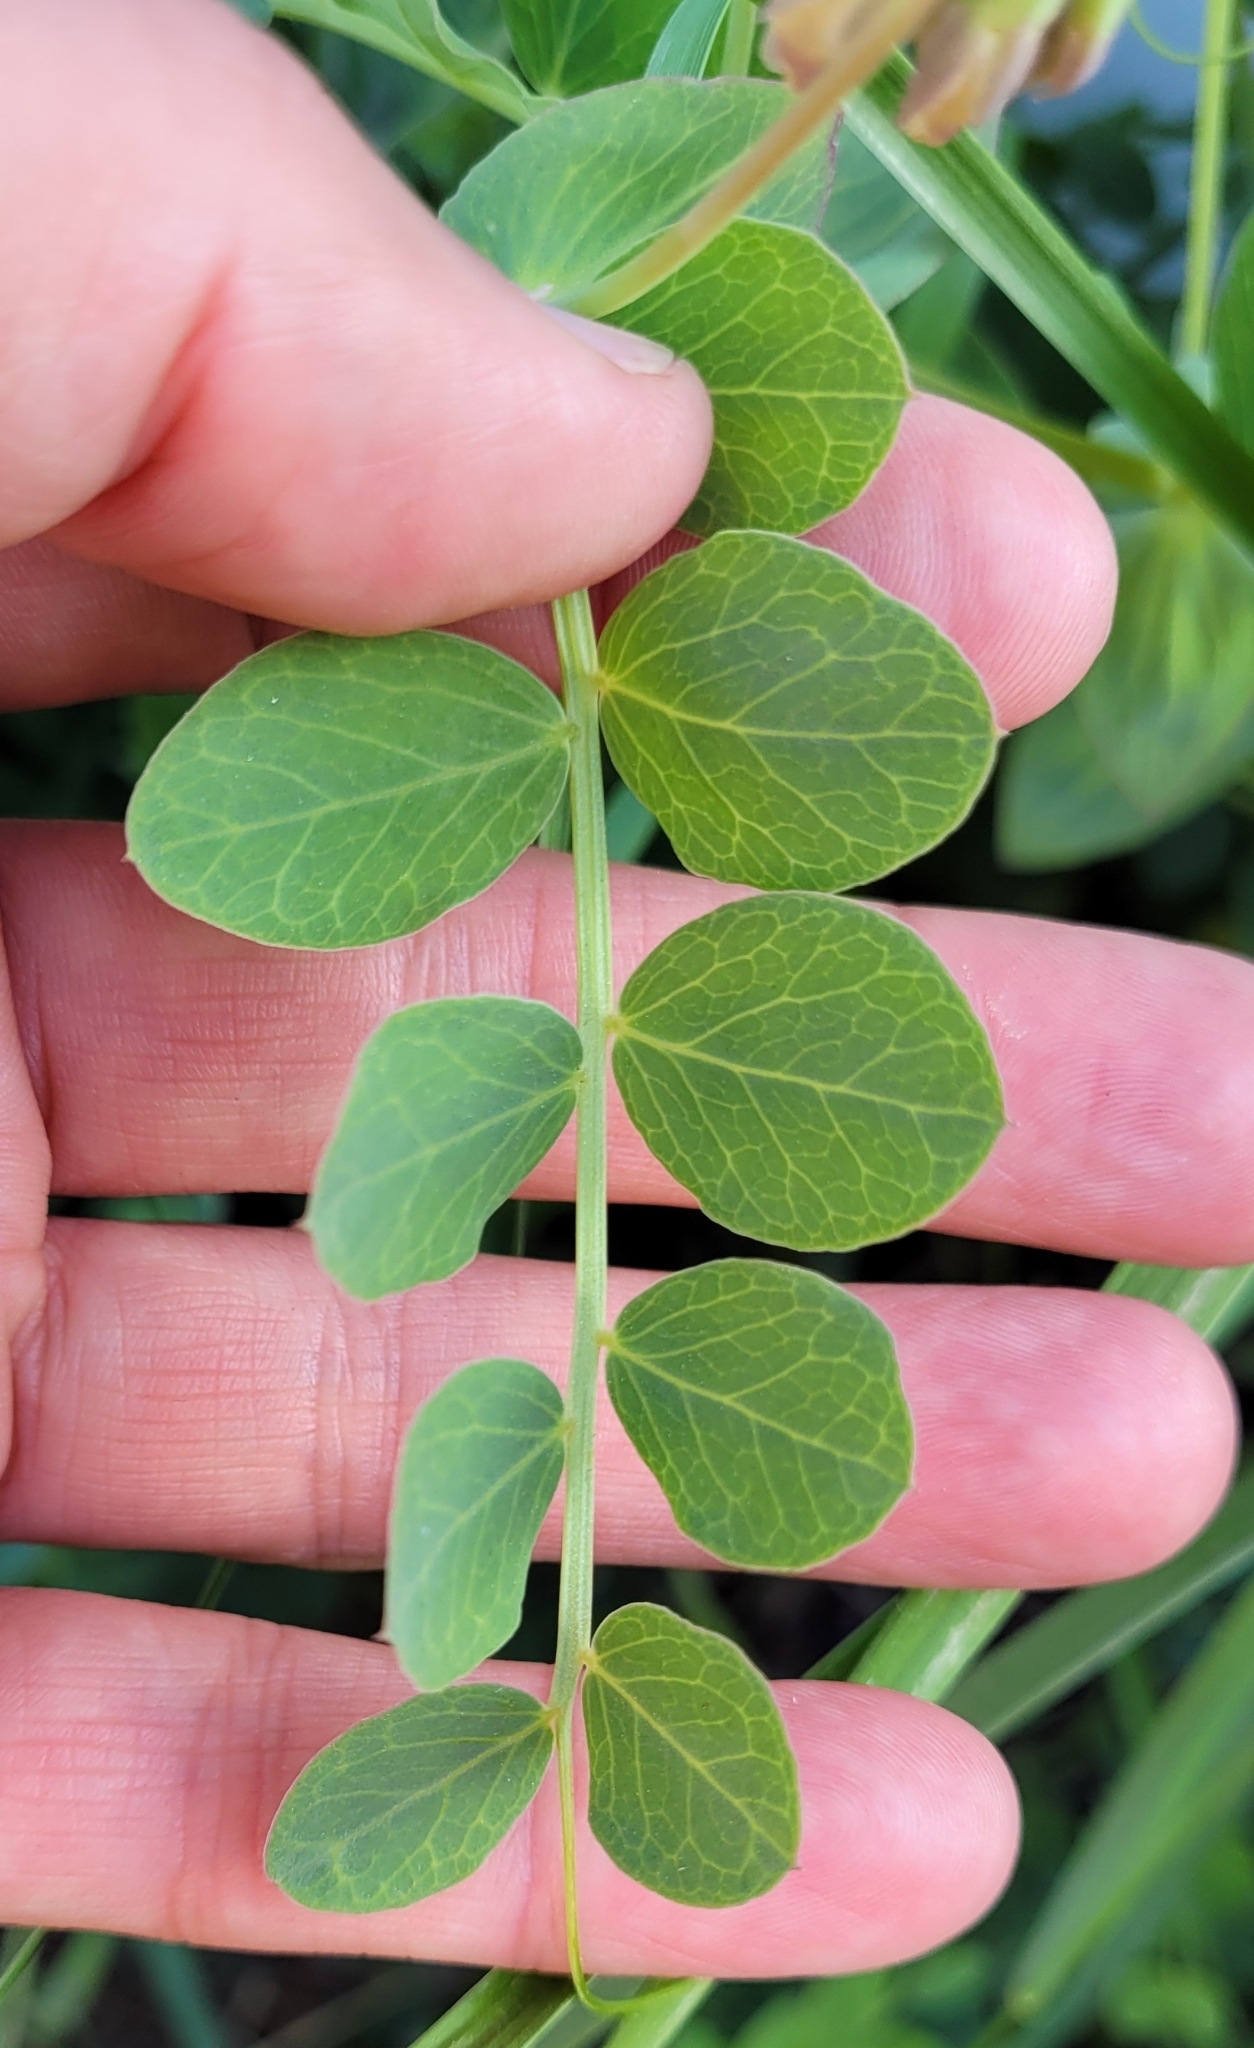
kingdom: Plantae
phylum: Tracheophyta
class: Magnoliopsida
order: Fabales
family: Fabaceae
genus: Lathyrus
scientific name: Lathyrus japonicus
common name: Sea pea
